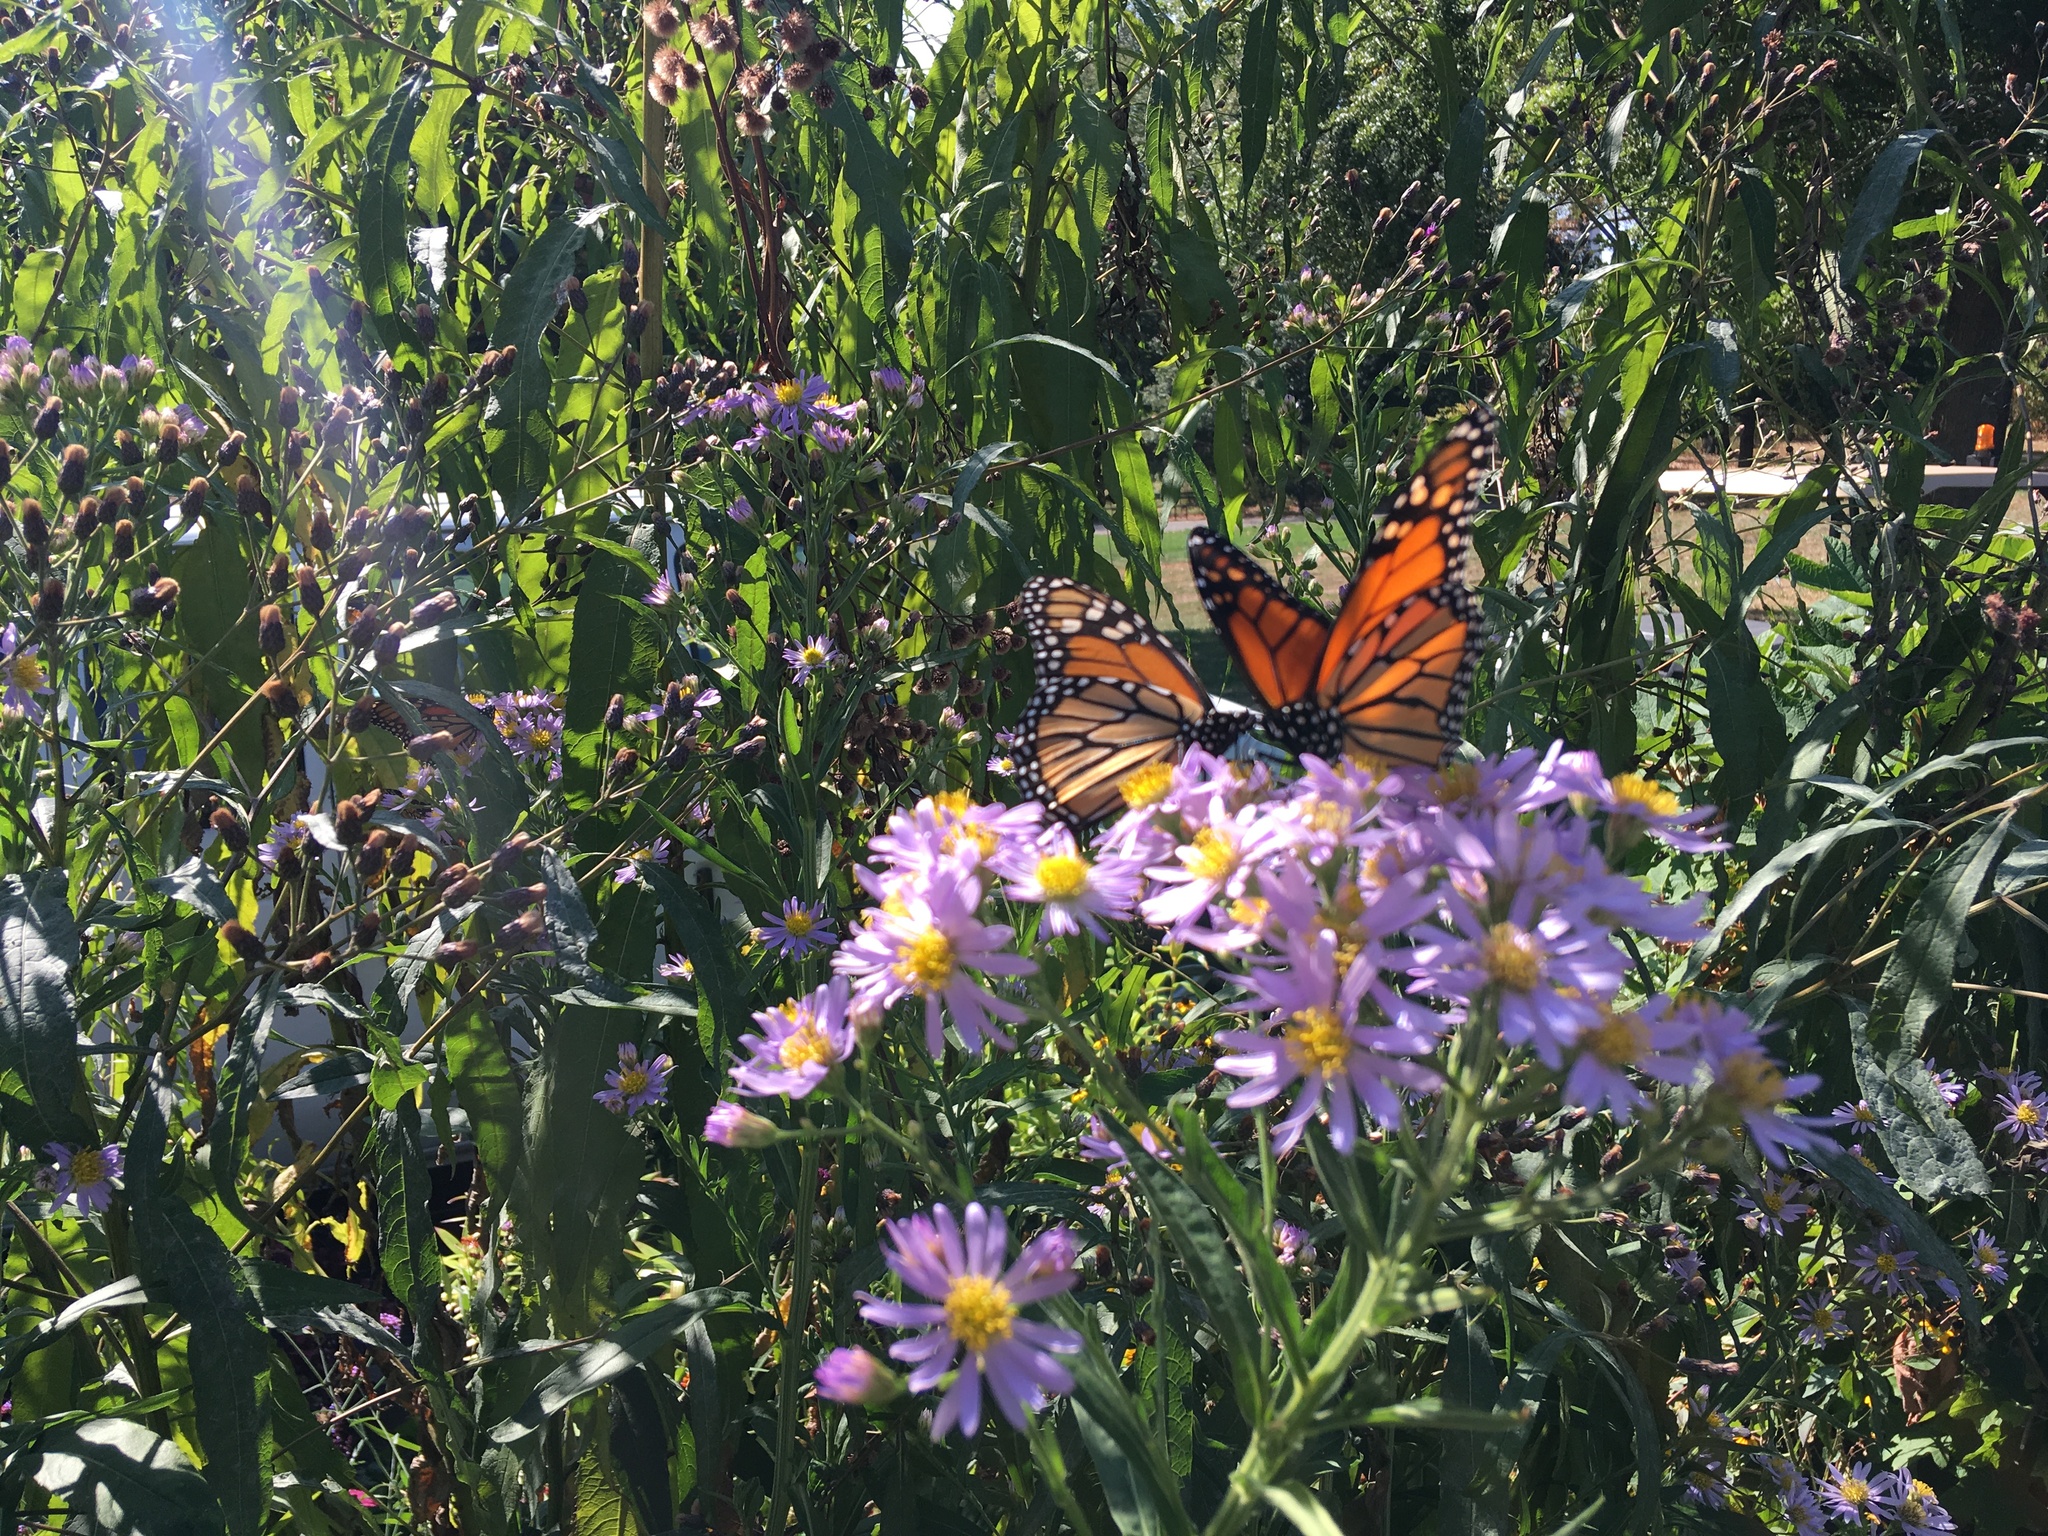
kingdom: Animalia
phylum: Arthropoda
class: Insecta
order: Lepidoptera
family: Nymphalidae
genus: Danaus
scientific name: Danaus plexippus
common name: Monarch
